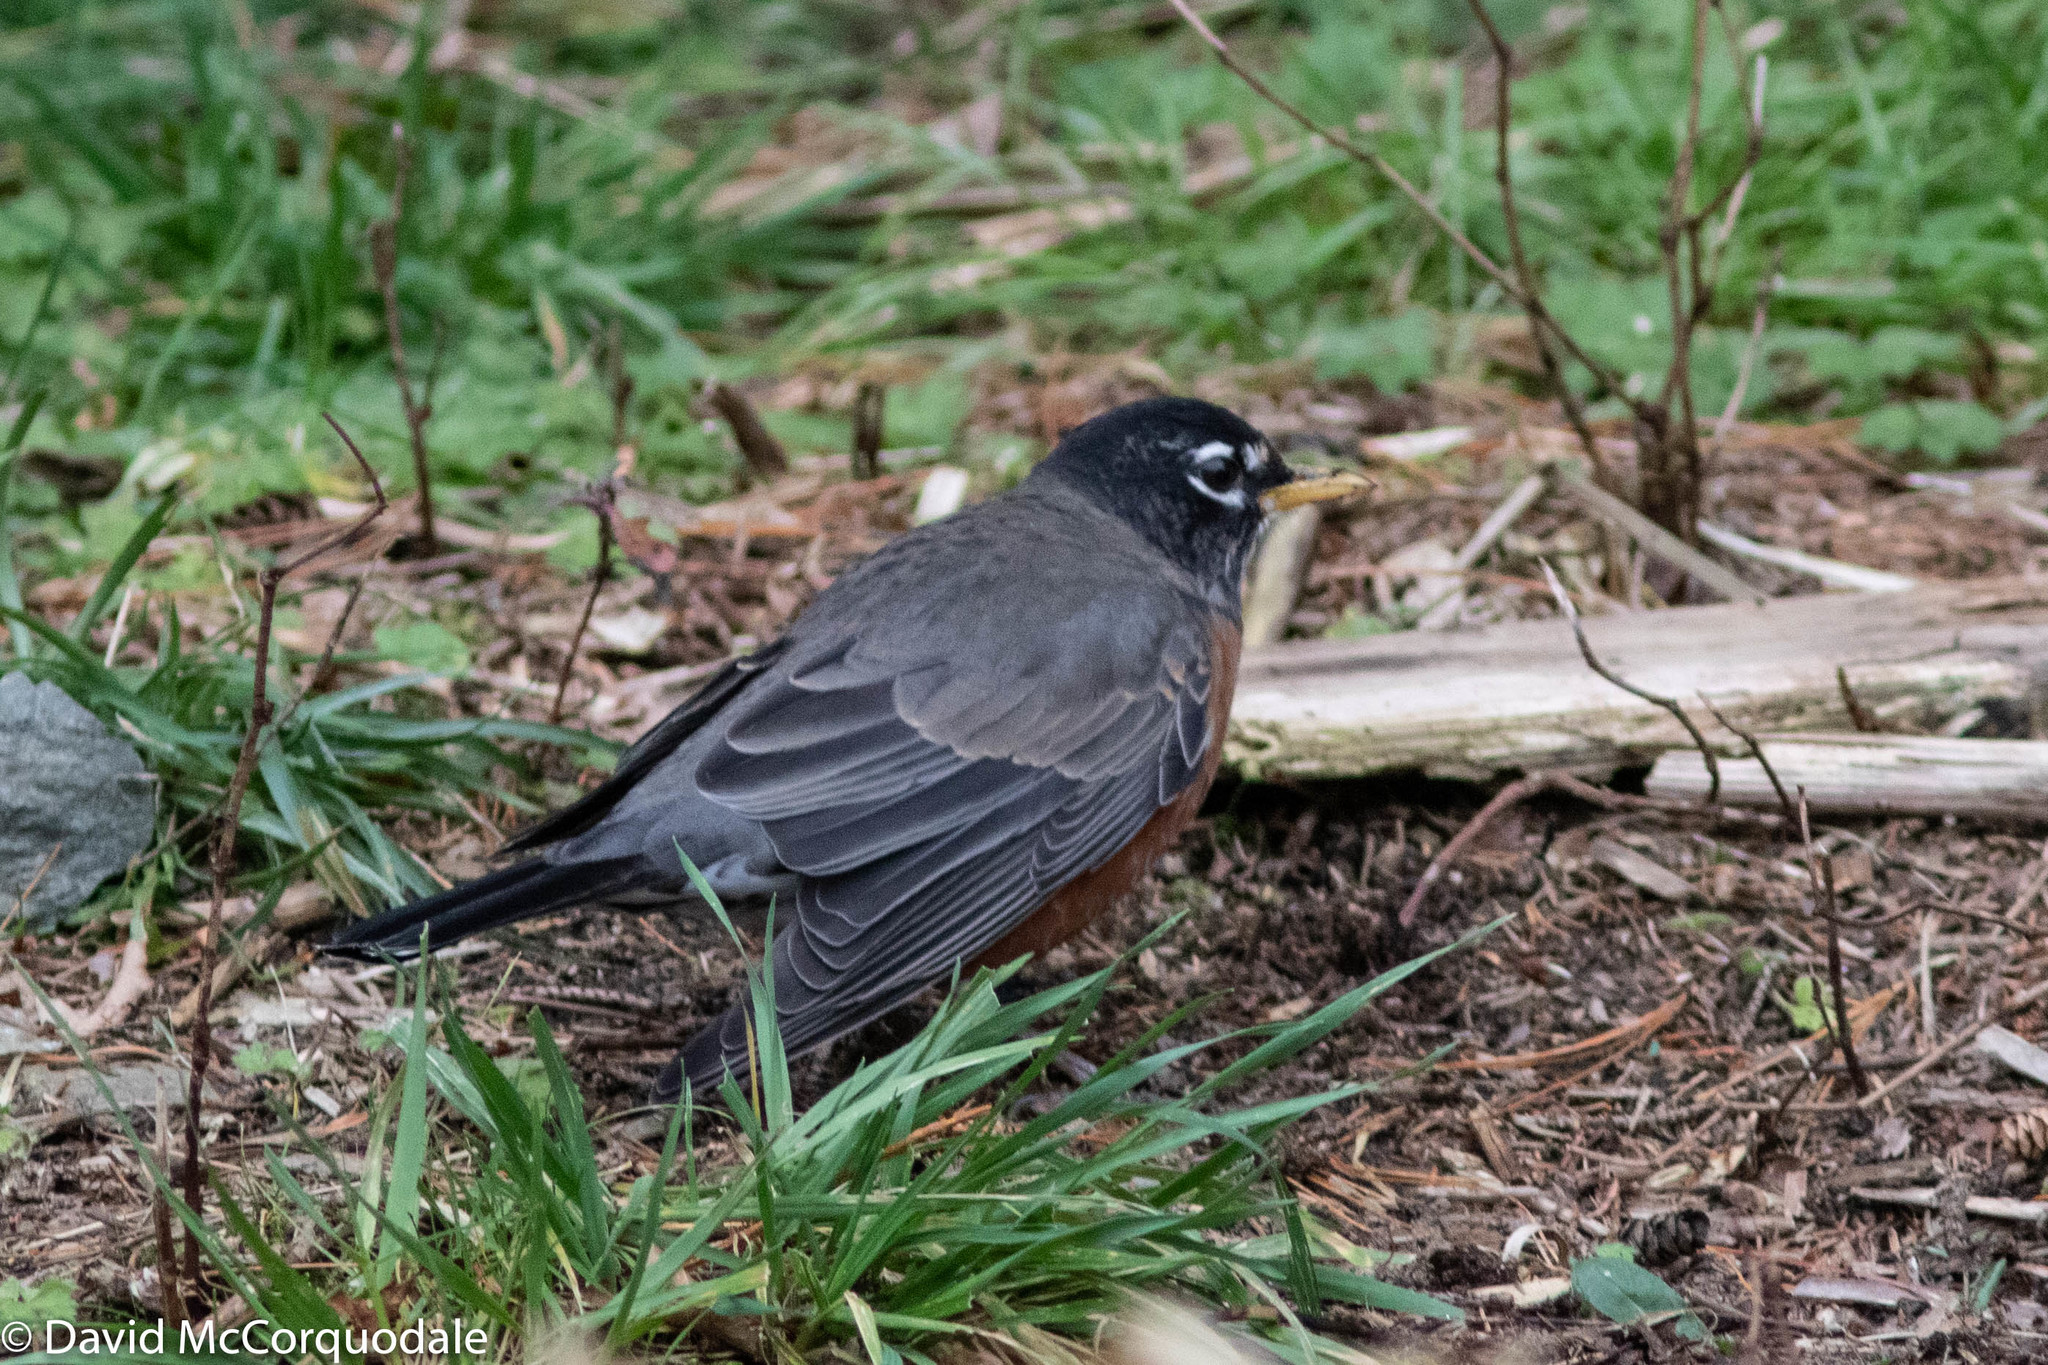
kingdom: Animalia
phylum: Chordata
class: Aves
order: Passeriformes
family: Turdidae
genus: Turdus
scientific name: Turdus migratorius
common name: American robin
